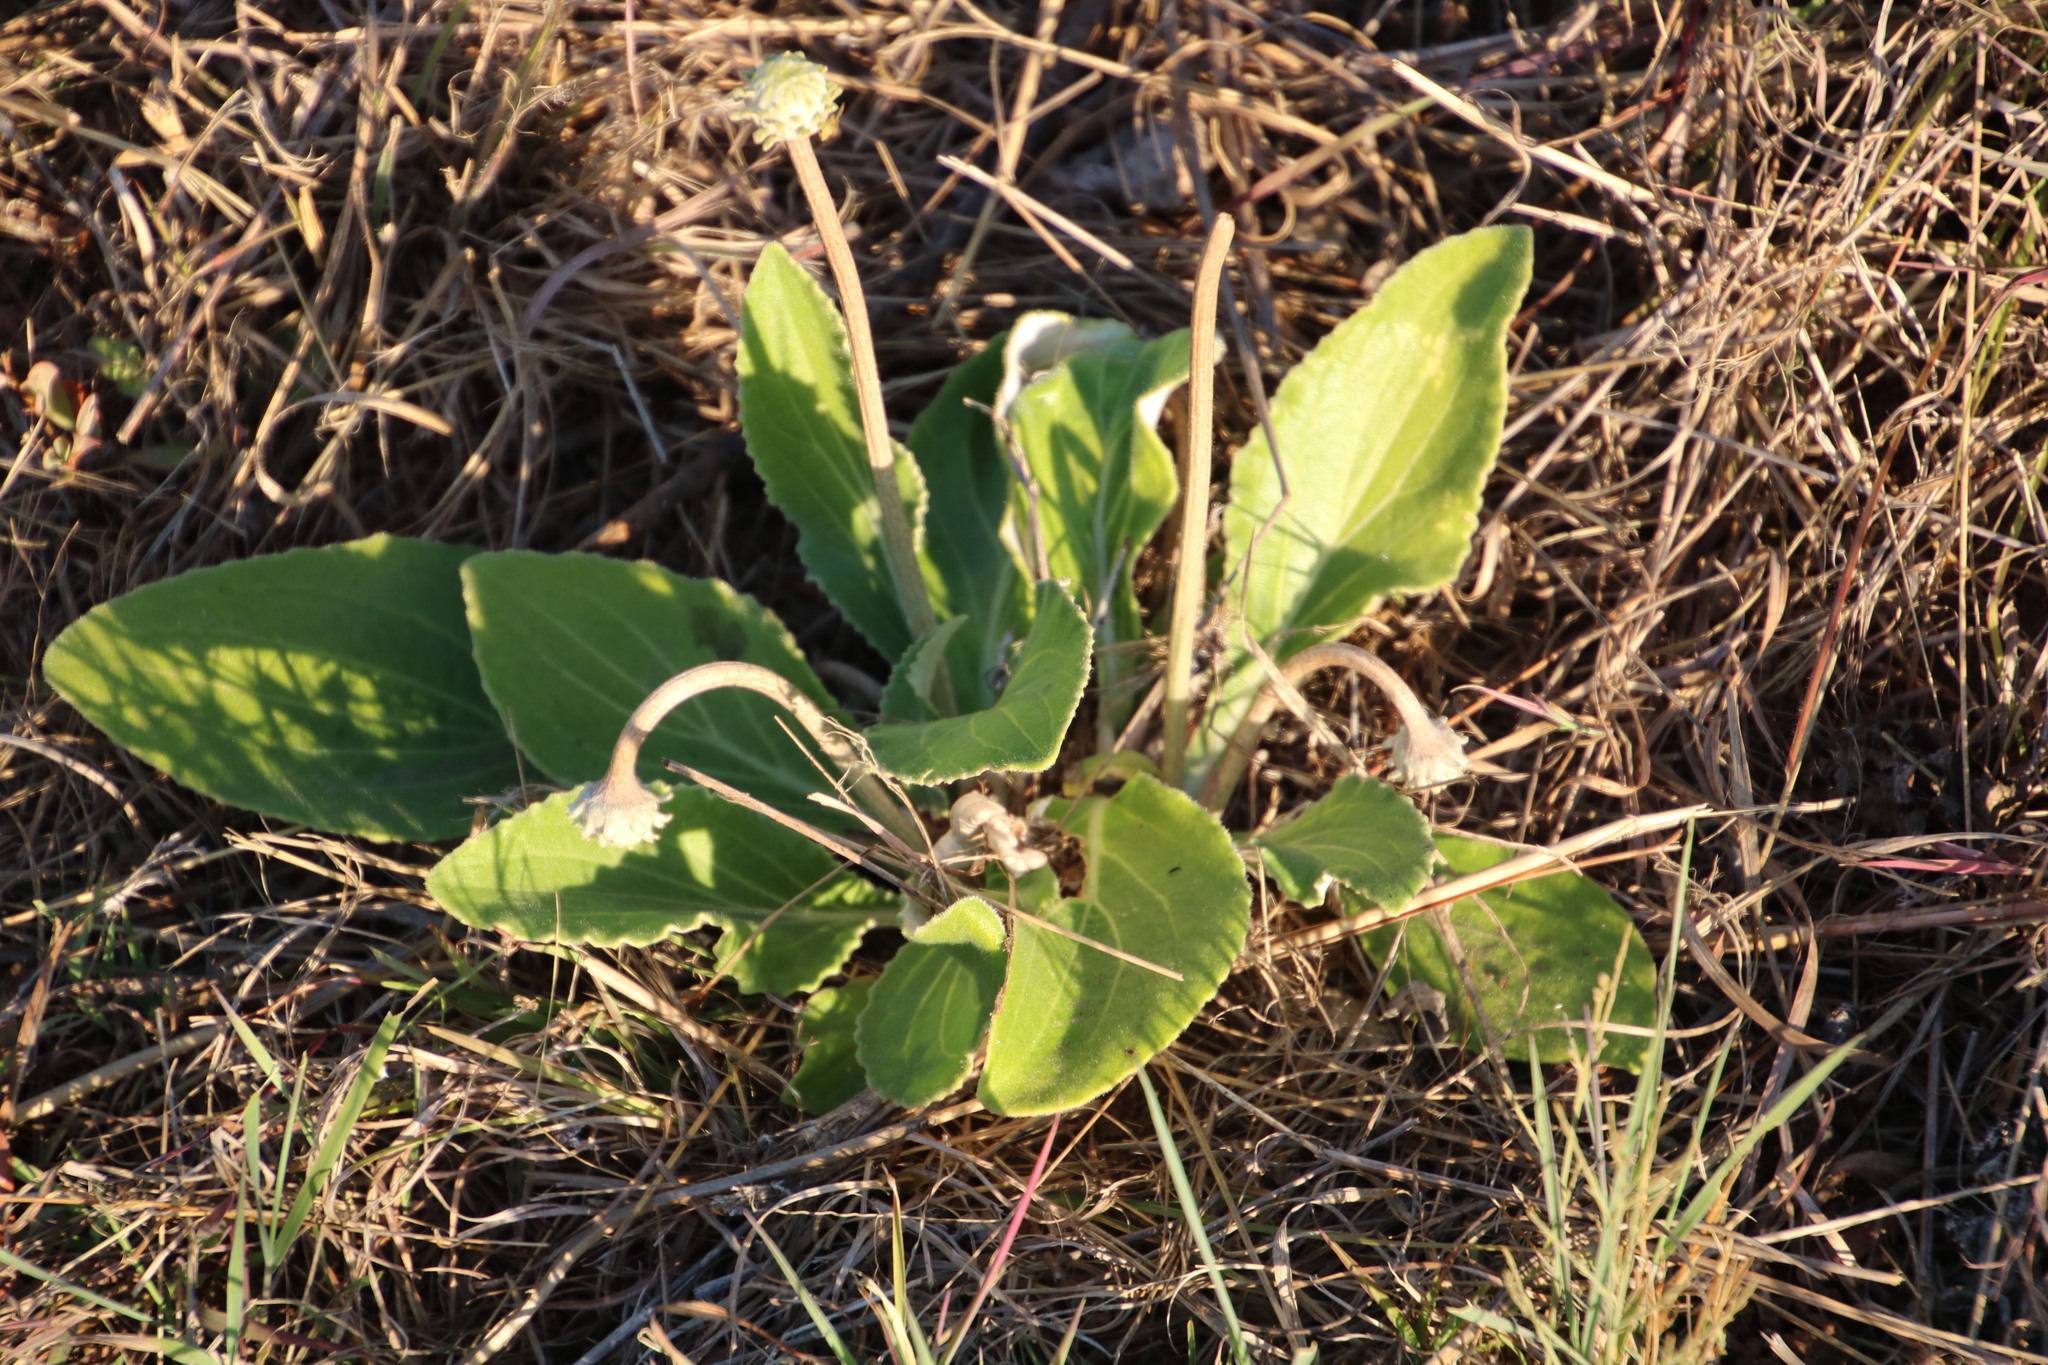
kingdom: Plantae
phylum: Tracheophyta
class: Magnoliopsida
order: Asterales
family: Asteraceae
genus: Haplocarpha
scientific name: Haplocarpha scaposa
